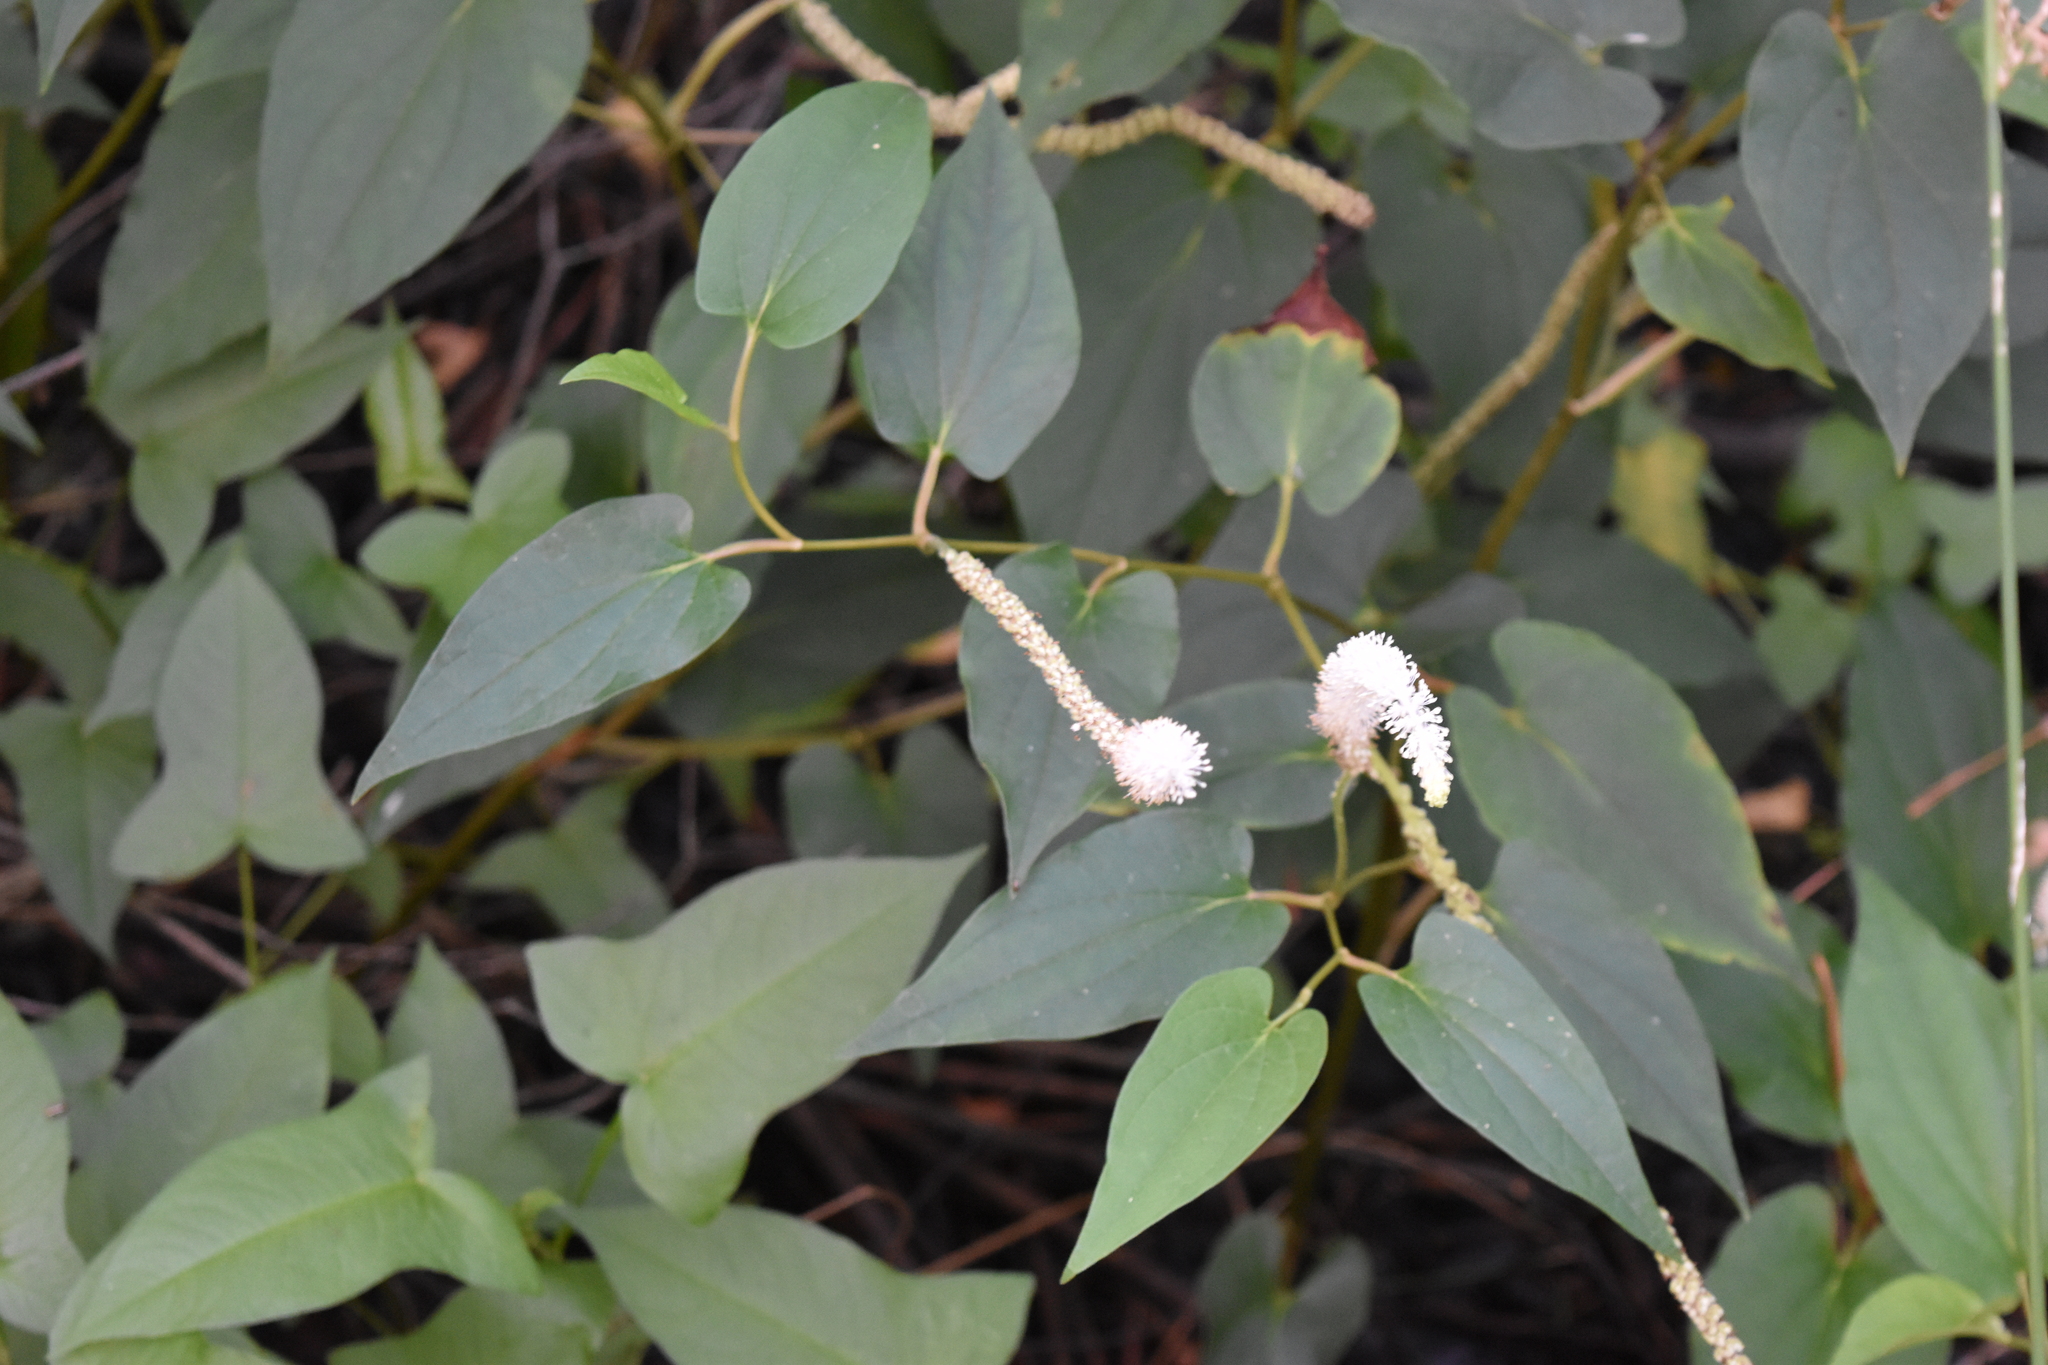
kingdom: Plantae
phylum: Tracheophyta
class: Magnoliopsida
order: Piperales
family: Saururaceae
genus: Saururus
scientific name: Saururus cernuus
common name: Lizard's-tail
